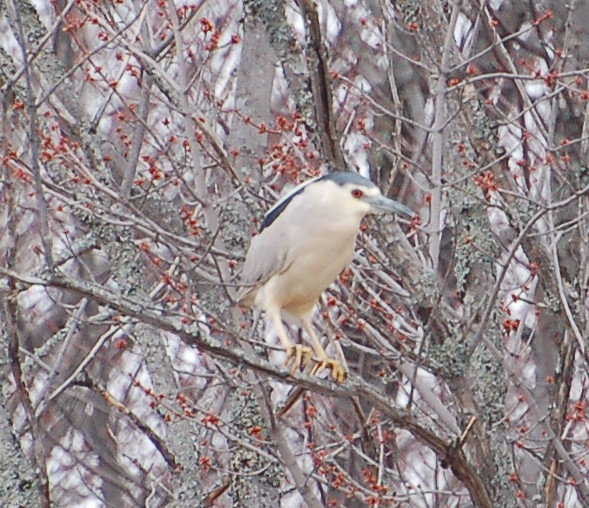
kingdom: Animalia
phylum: Chordata
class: Aves
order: Pelecaniformes
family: Ardeidae
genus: Nycticorax
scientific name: Nycticorax nycticorax
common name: Black-crowned night heron
